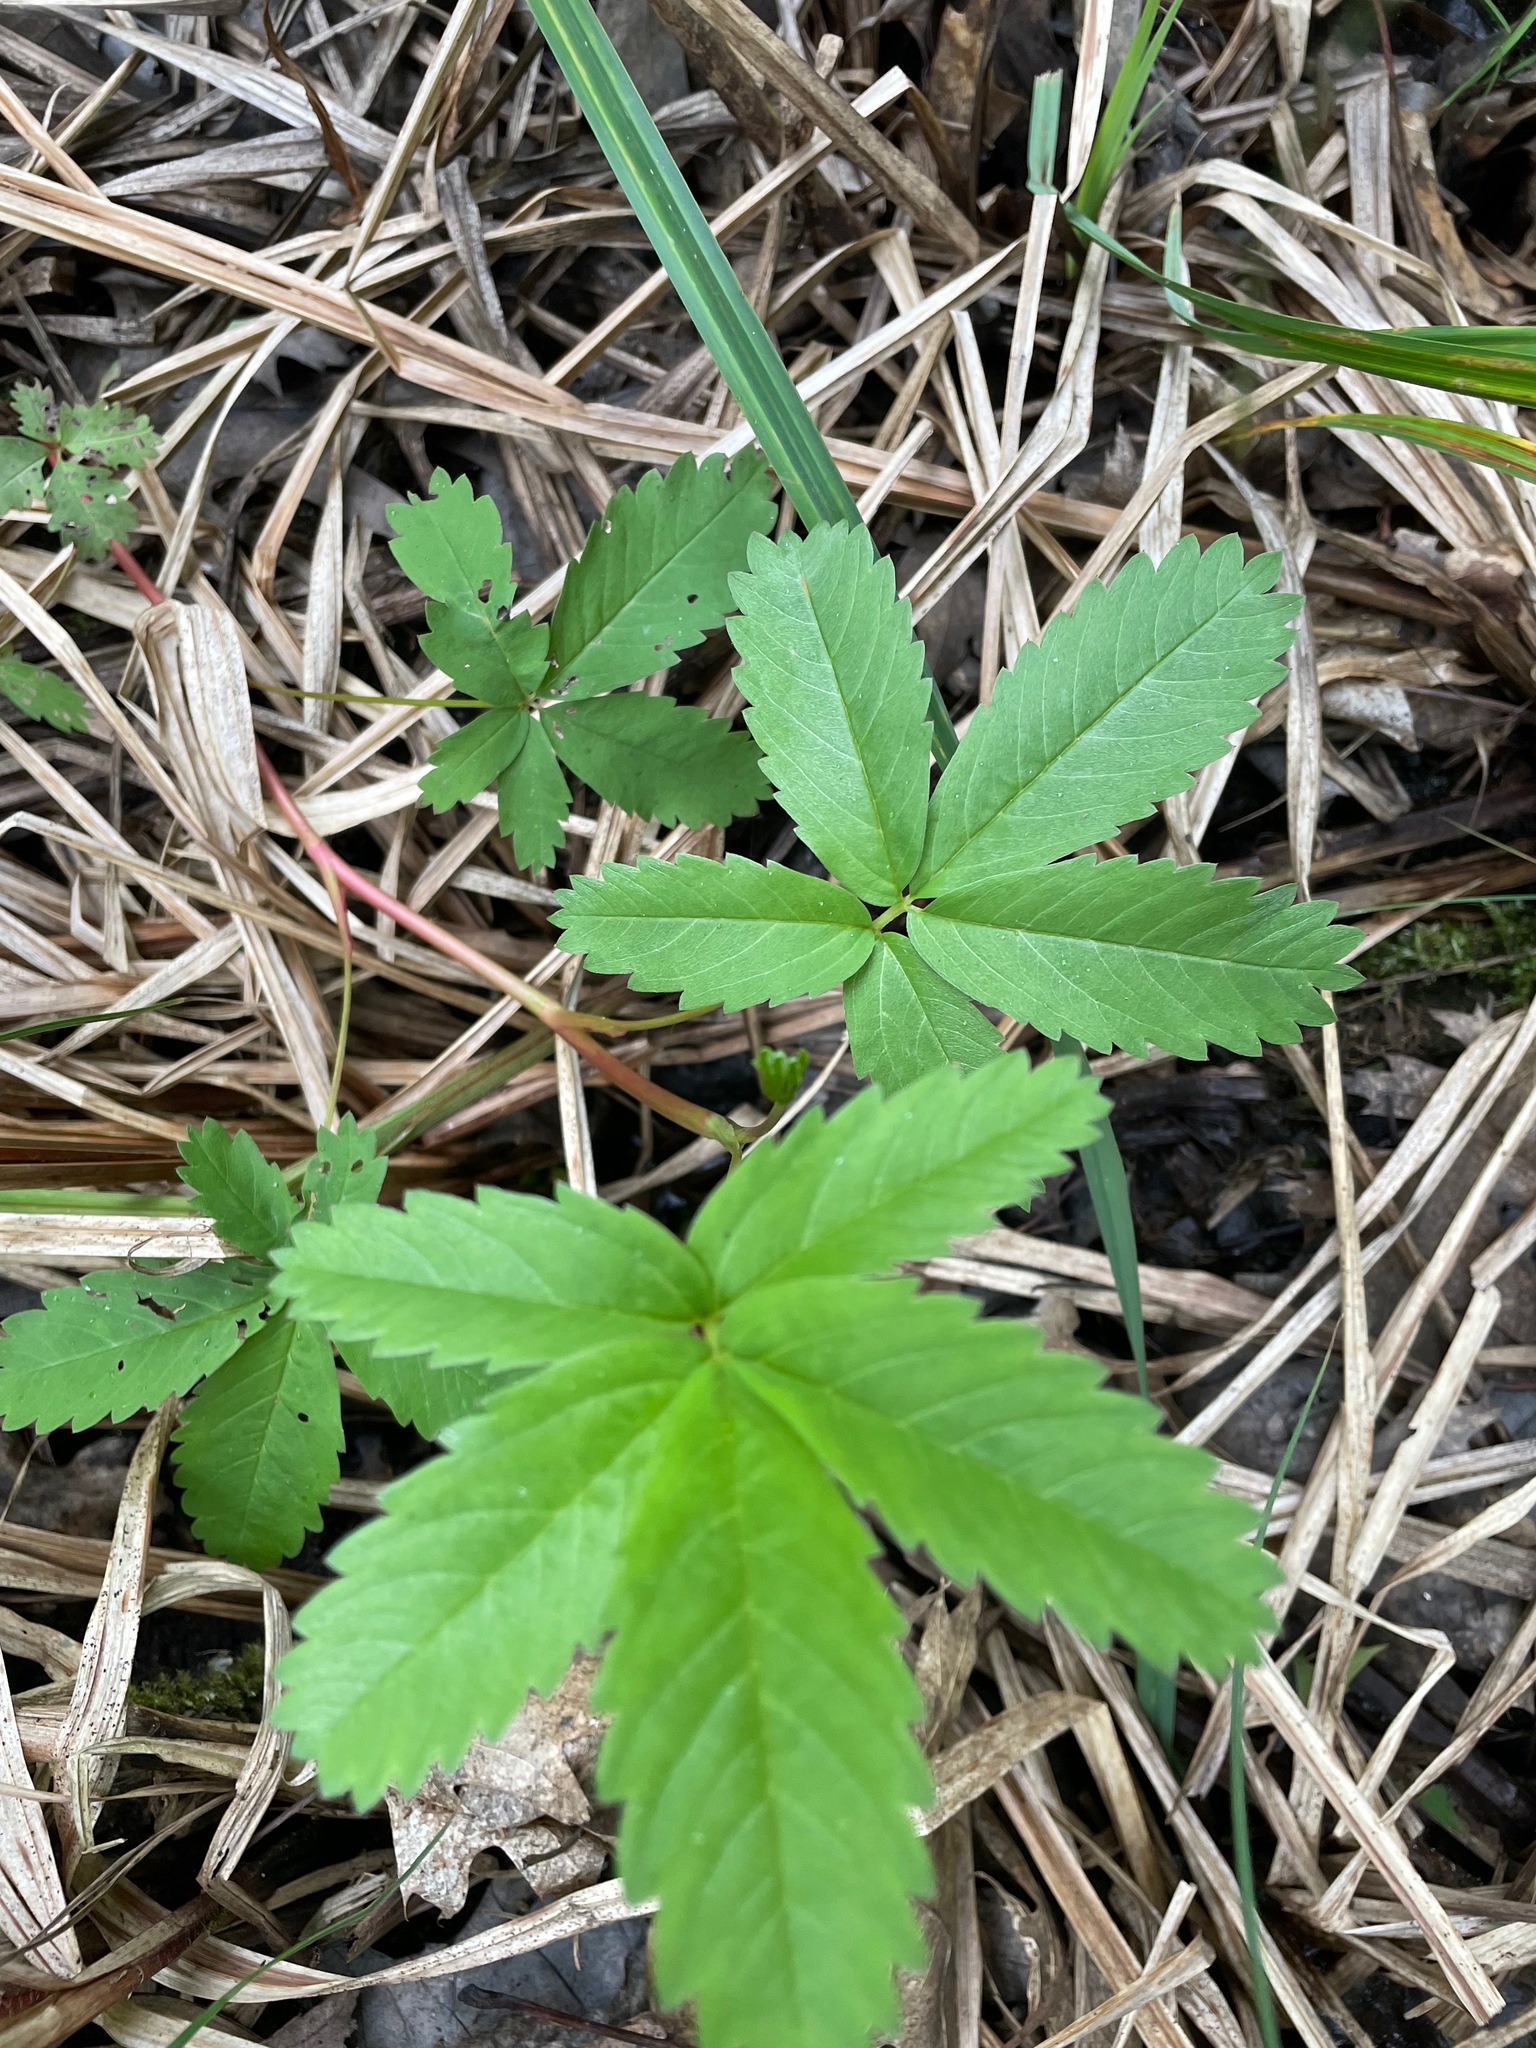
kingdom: Plantae
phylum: Tracheophyta
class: Magnoliopsida
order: Rosales
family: Rosaceae
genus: Comarum
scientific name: Comarum palustre
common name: Marsh cinquefoil
